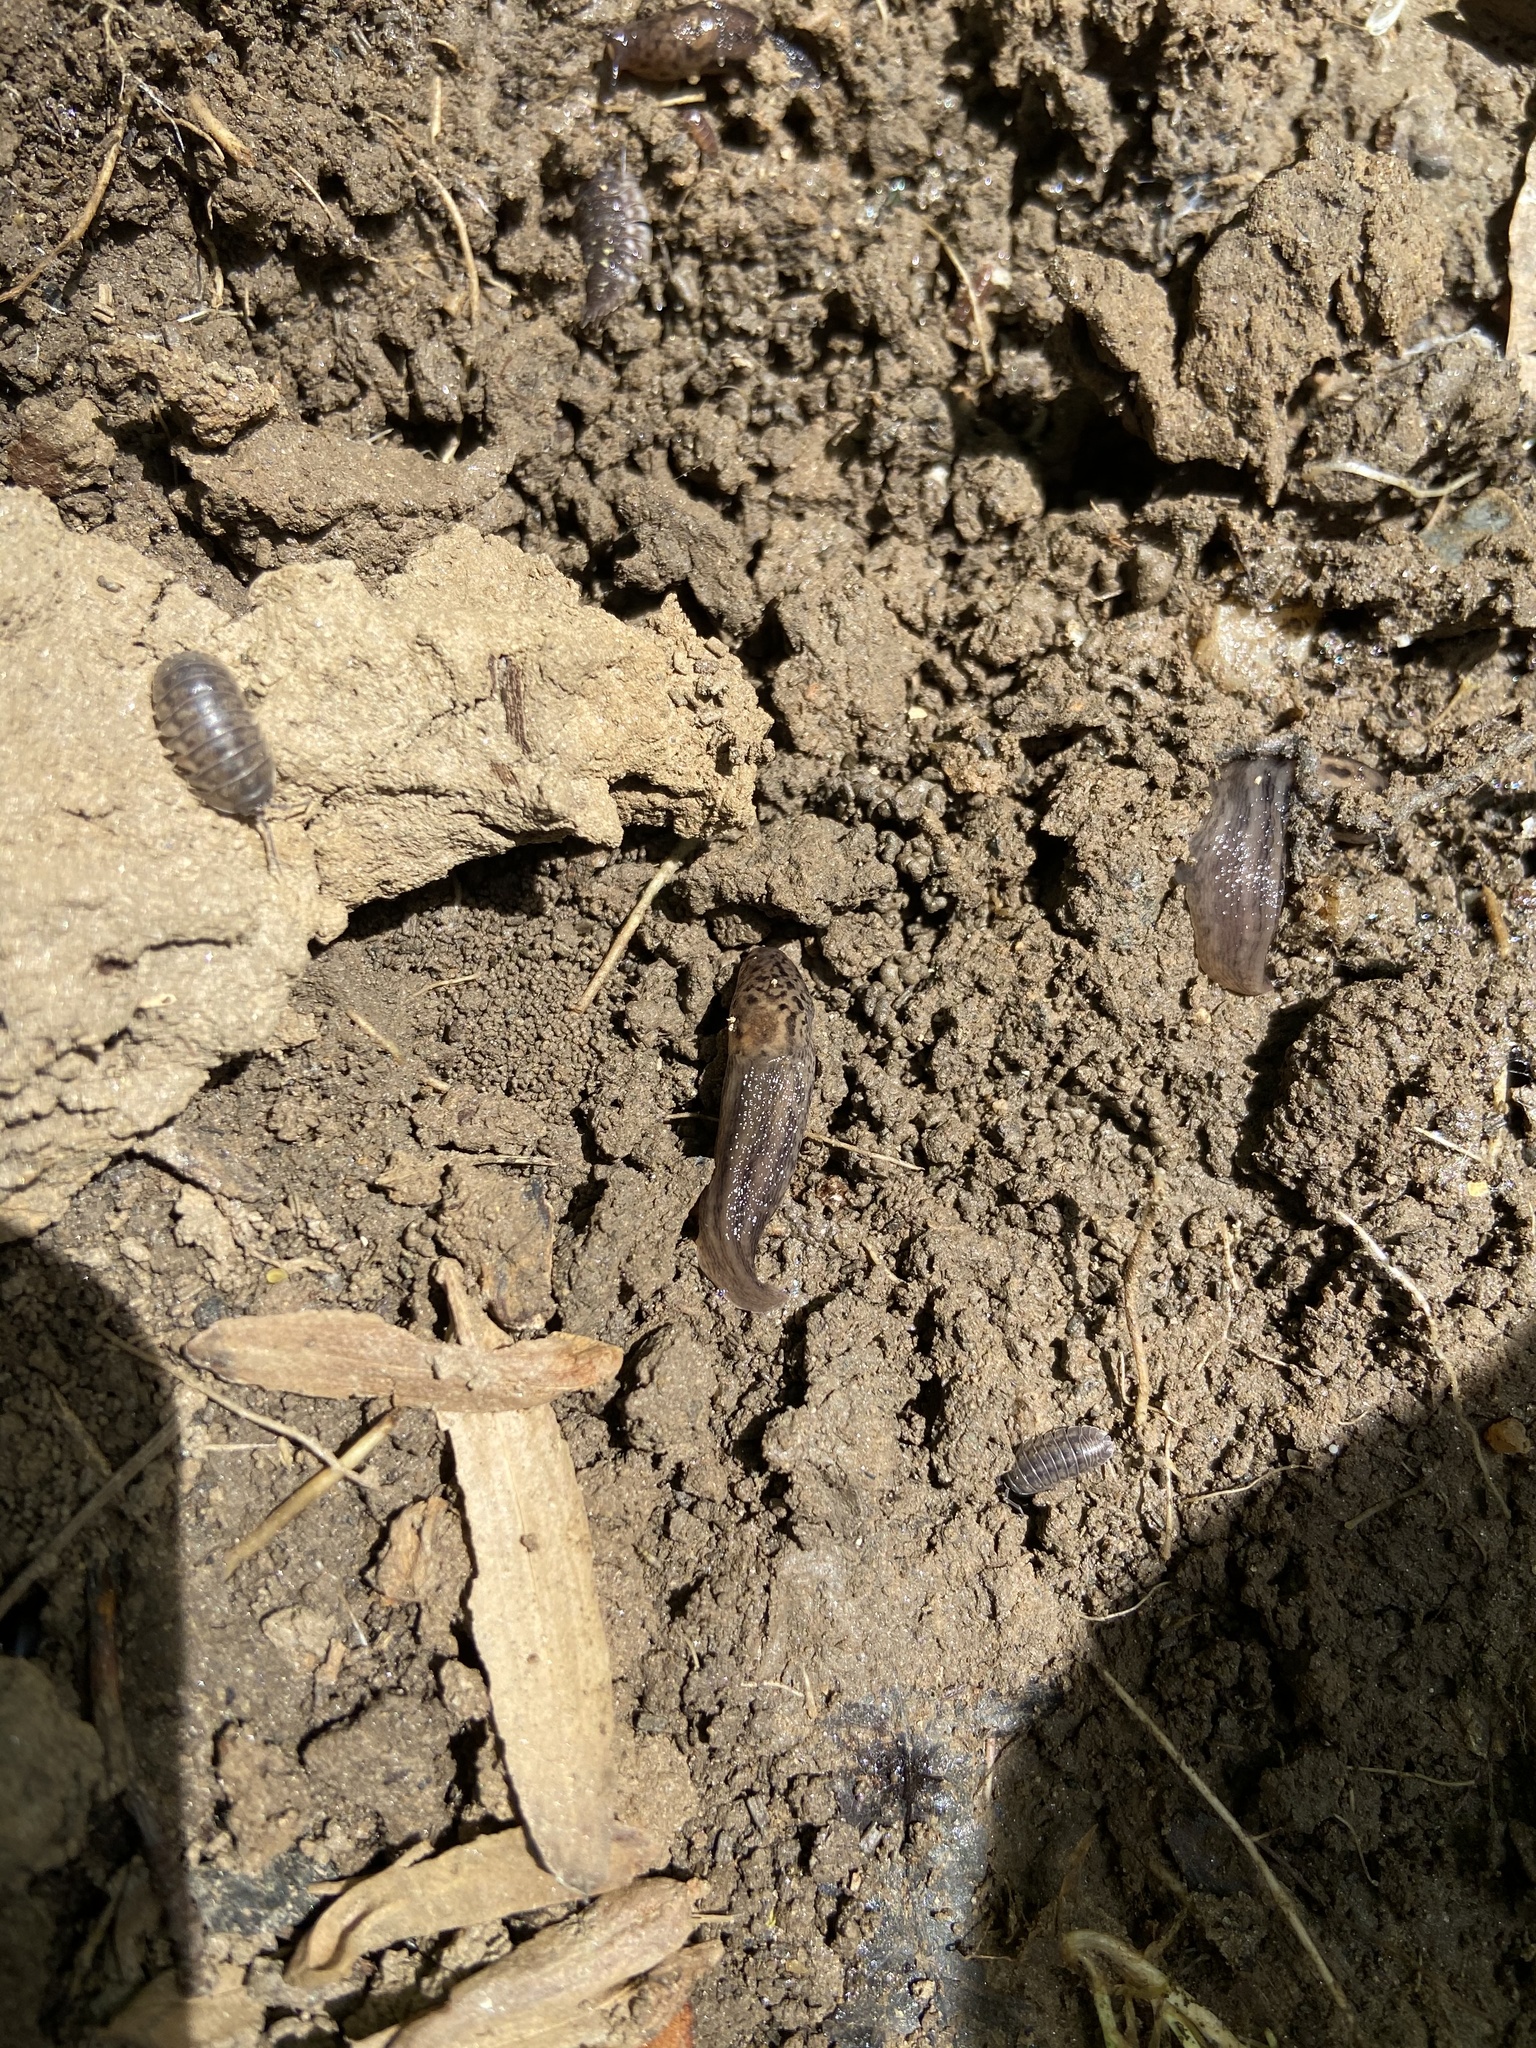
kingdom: Animalia
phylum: Arthropoda
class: Malacostraca
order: Isopoda
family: Armadillidiidae
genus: Armadillidium
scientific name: Armadillidium nasatum
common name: Isopod
